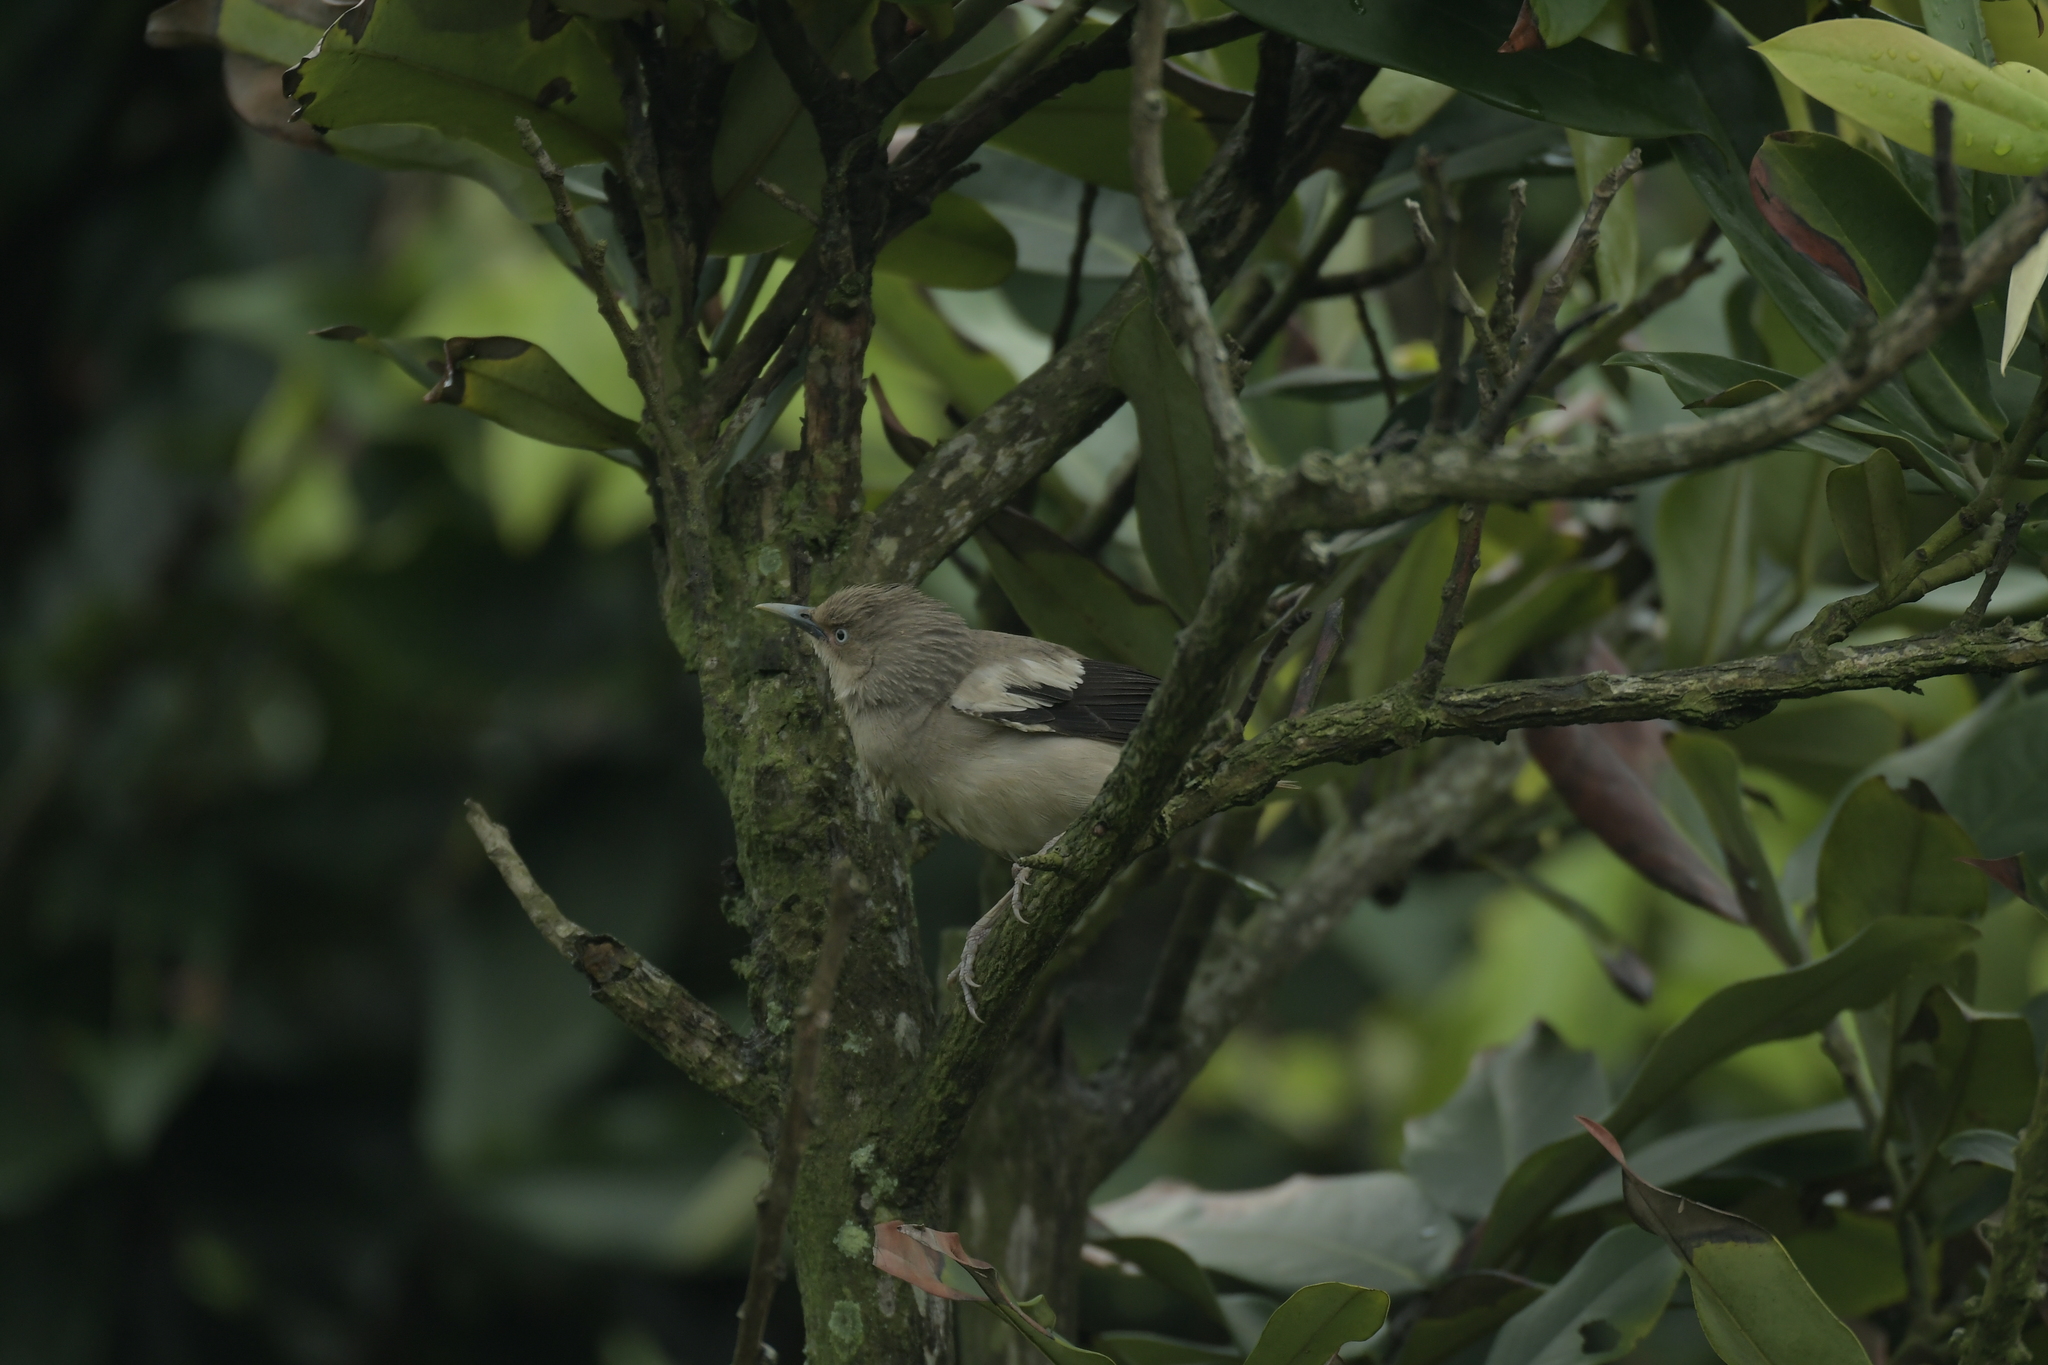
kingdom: Animalia
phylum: Chordata
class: Aves
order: Passeriformes
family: Sturnidae
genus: Sturnia
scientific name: Sturnia sinensis
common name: White-shouldered starling
